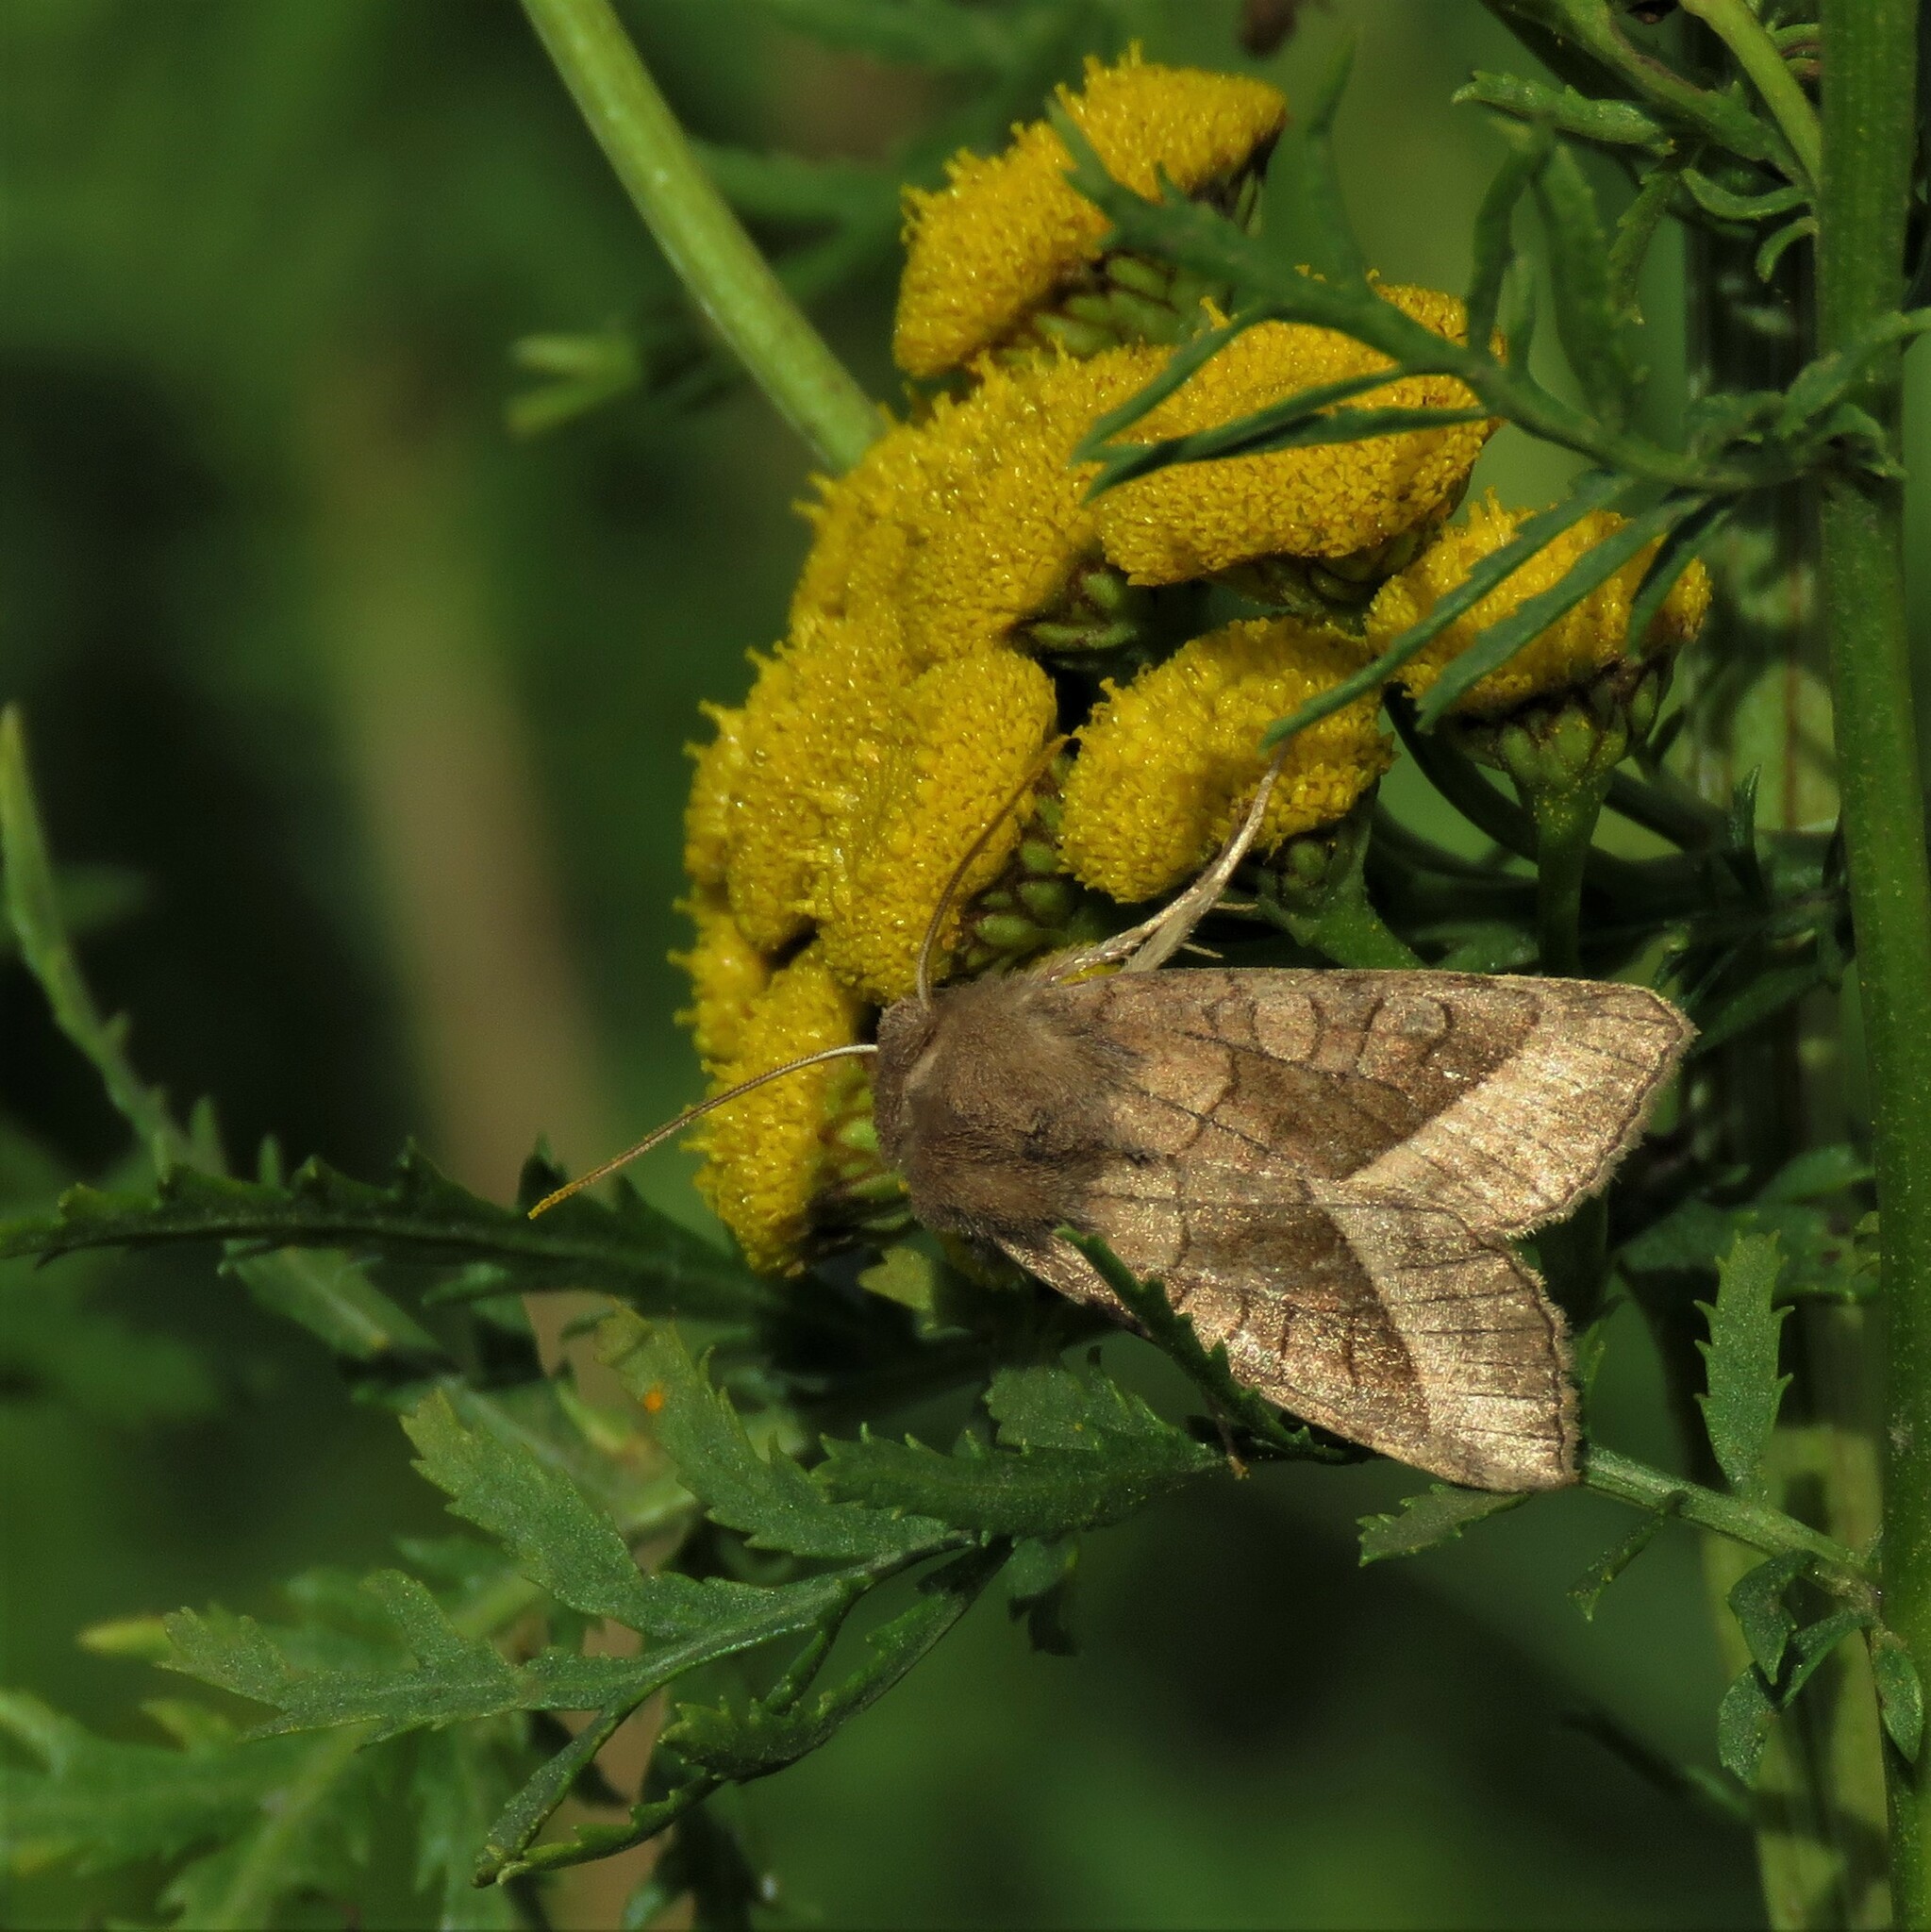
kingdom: Animalia
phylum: Arthropoda
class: Insecta
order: Lepidoptera
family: Noctuidae
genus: Hydraecia
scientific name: Hydraecia micacea
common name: Rosy rustic
